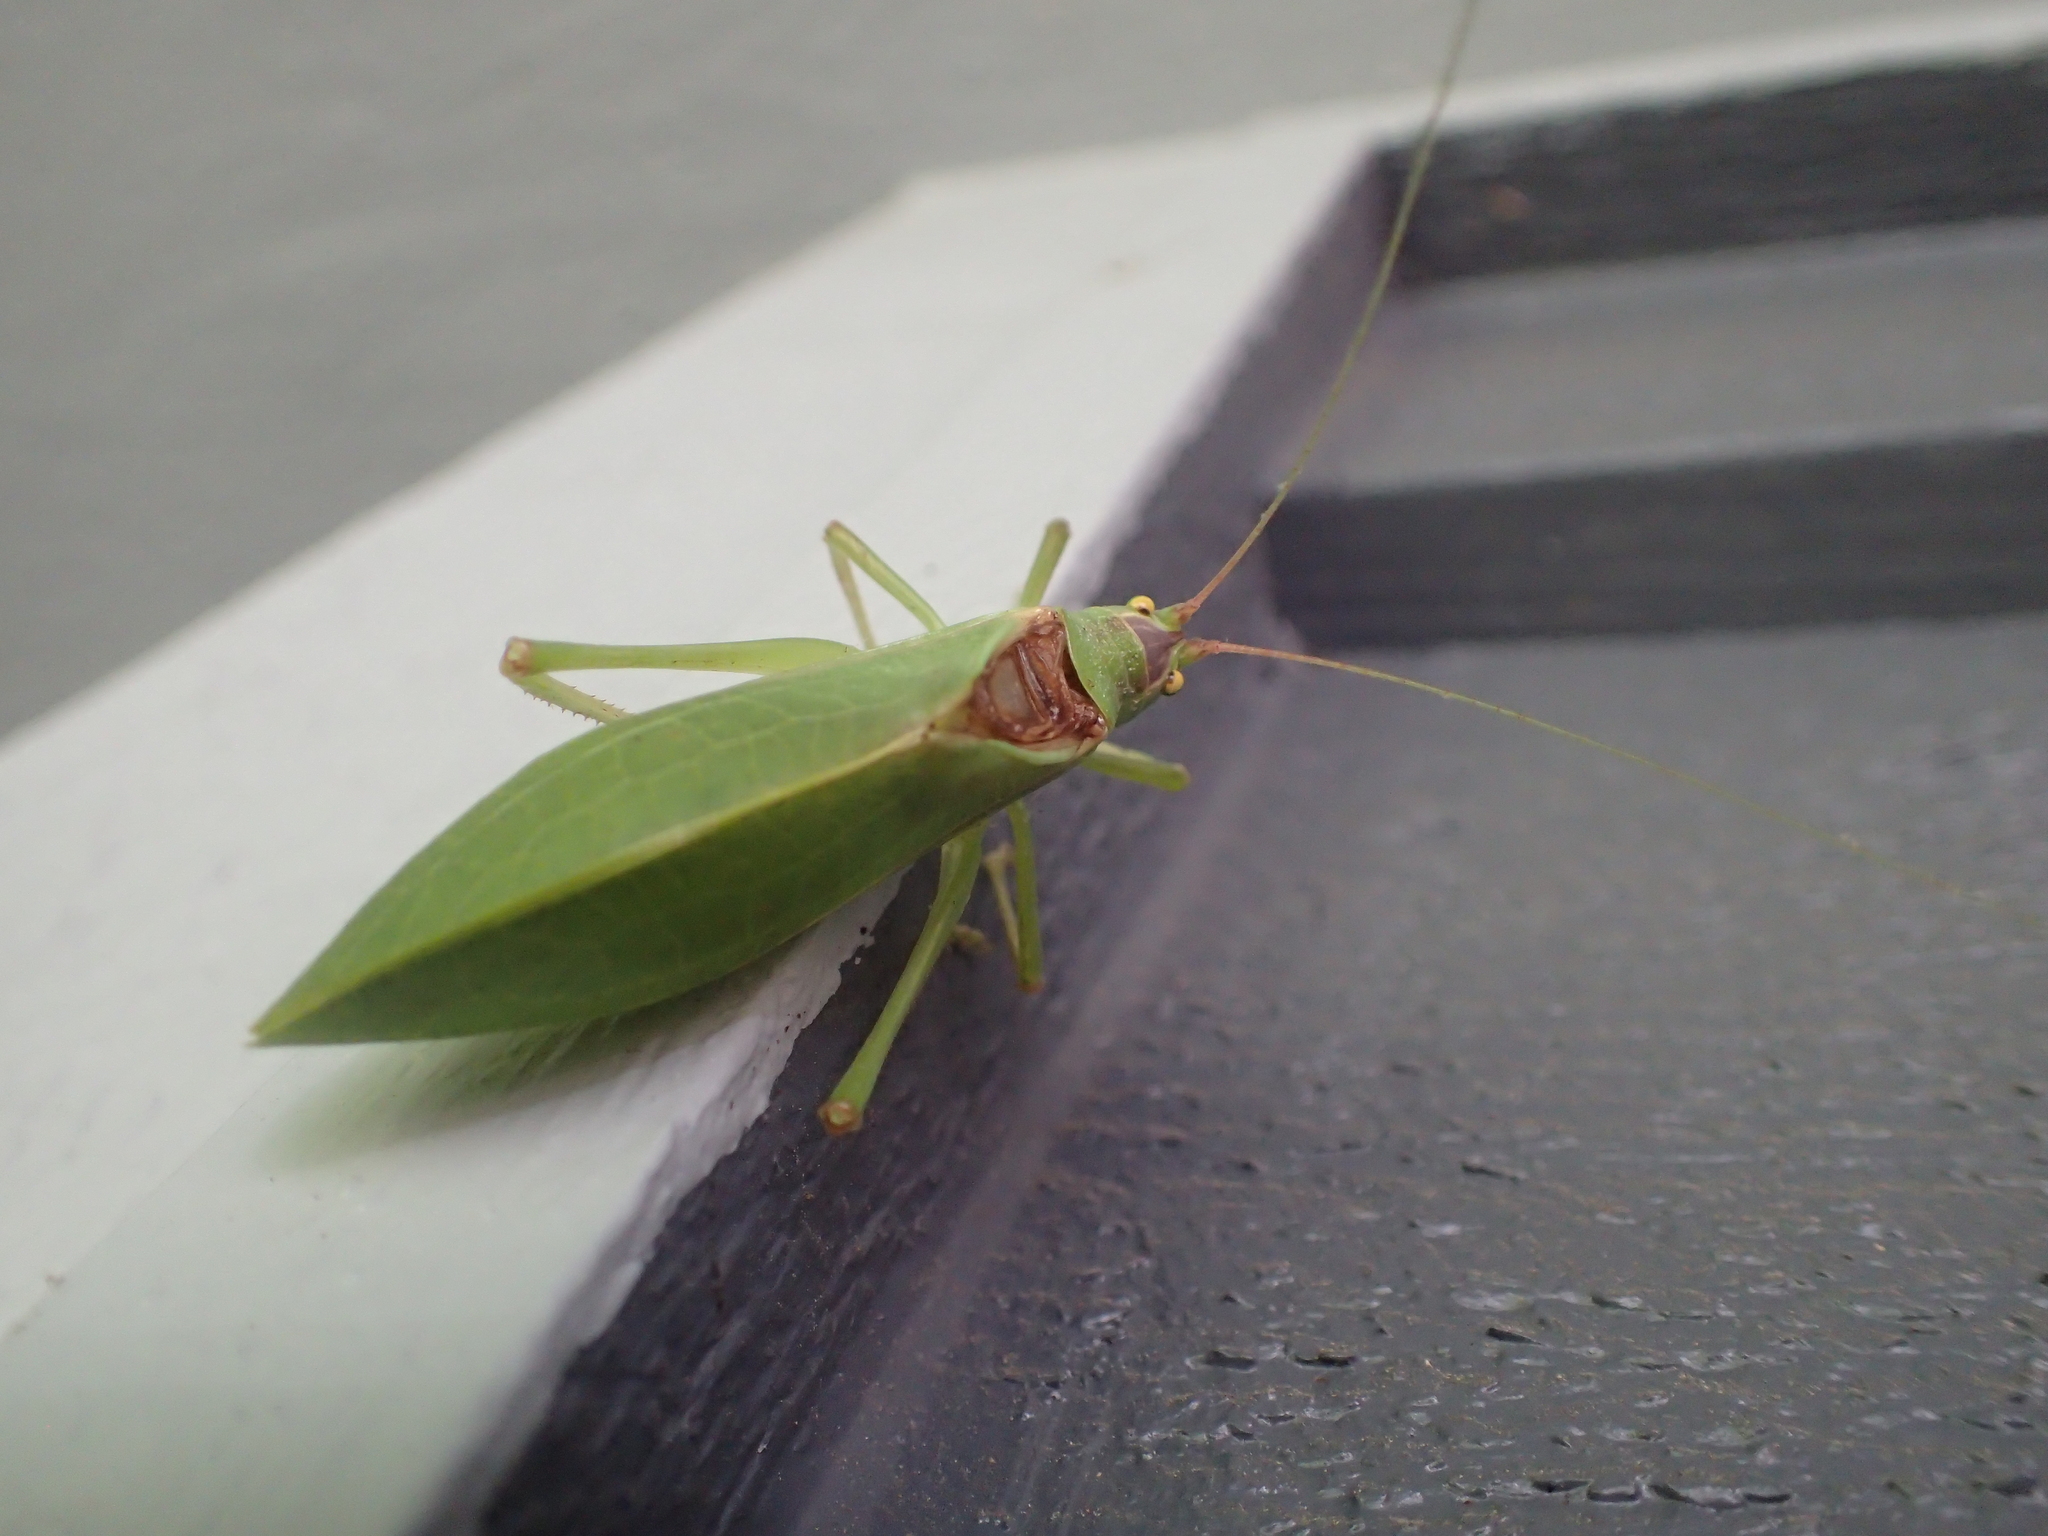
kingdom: Animalia
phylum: Arthropoda
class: Insecta
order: Orthoptera
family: Tettigoniidae
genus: Pterophylla
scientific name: Pterophylla camellifolia
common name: Common true katydid
